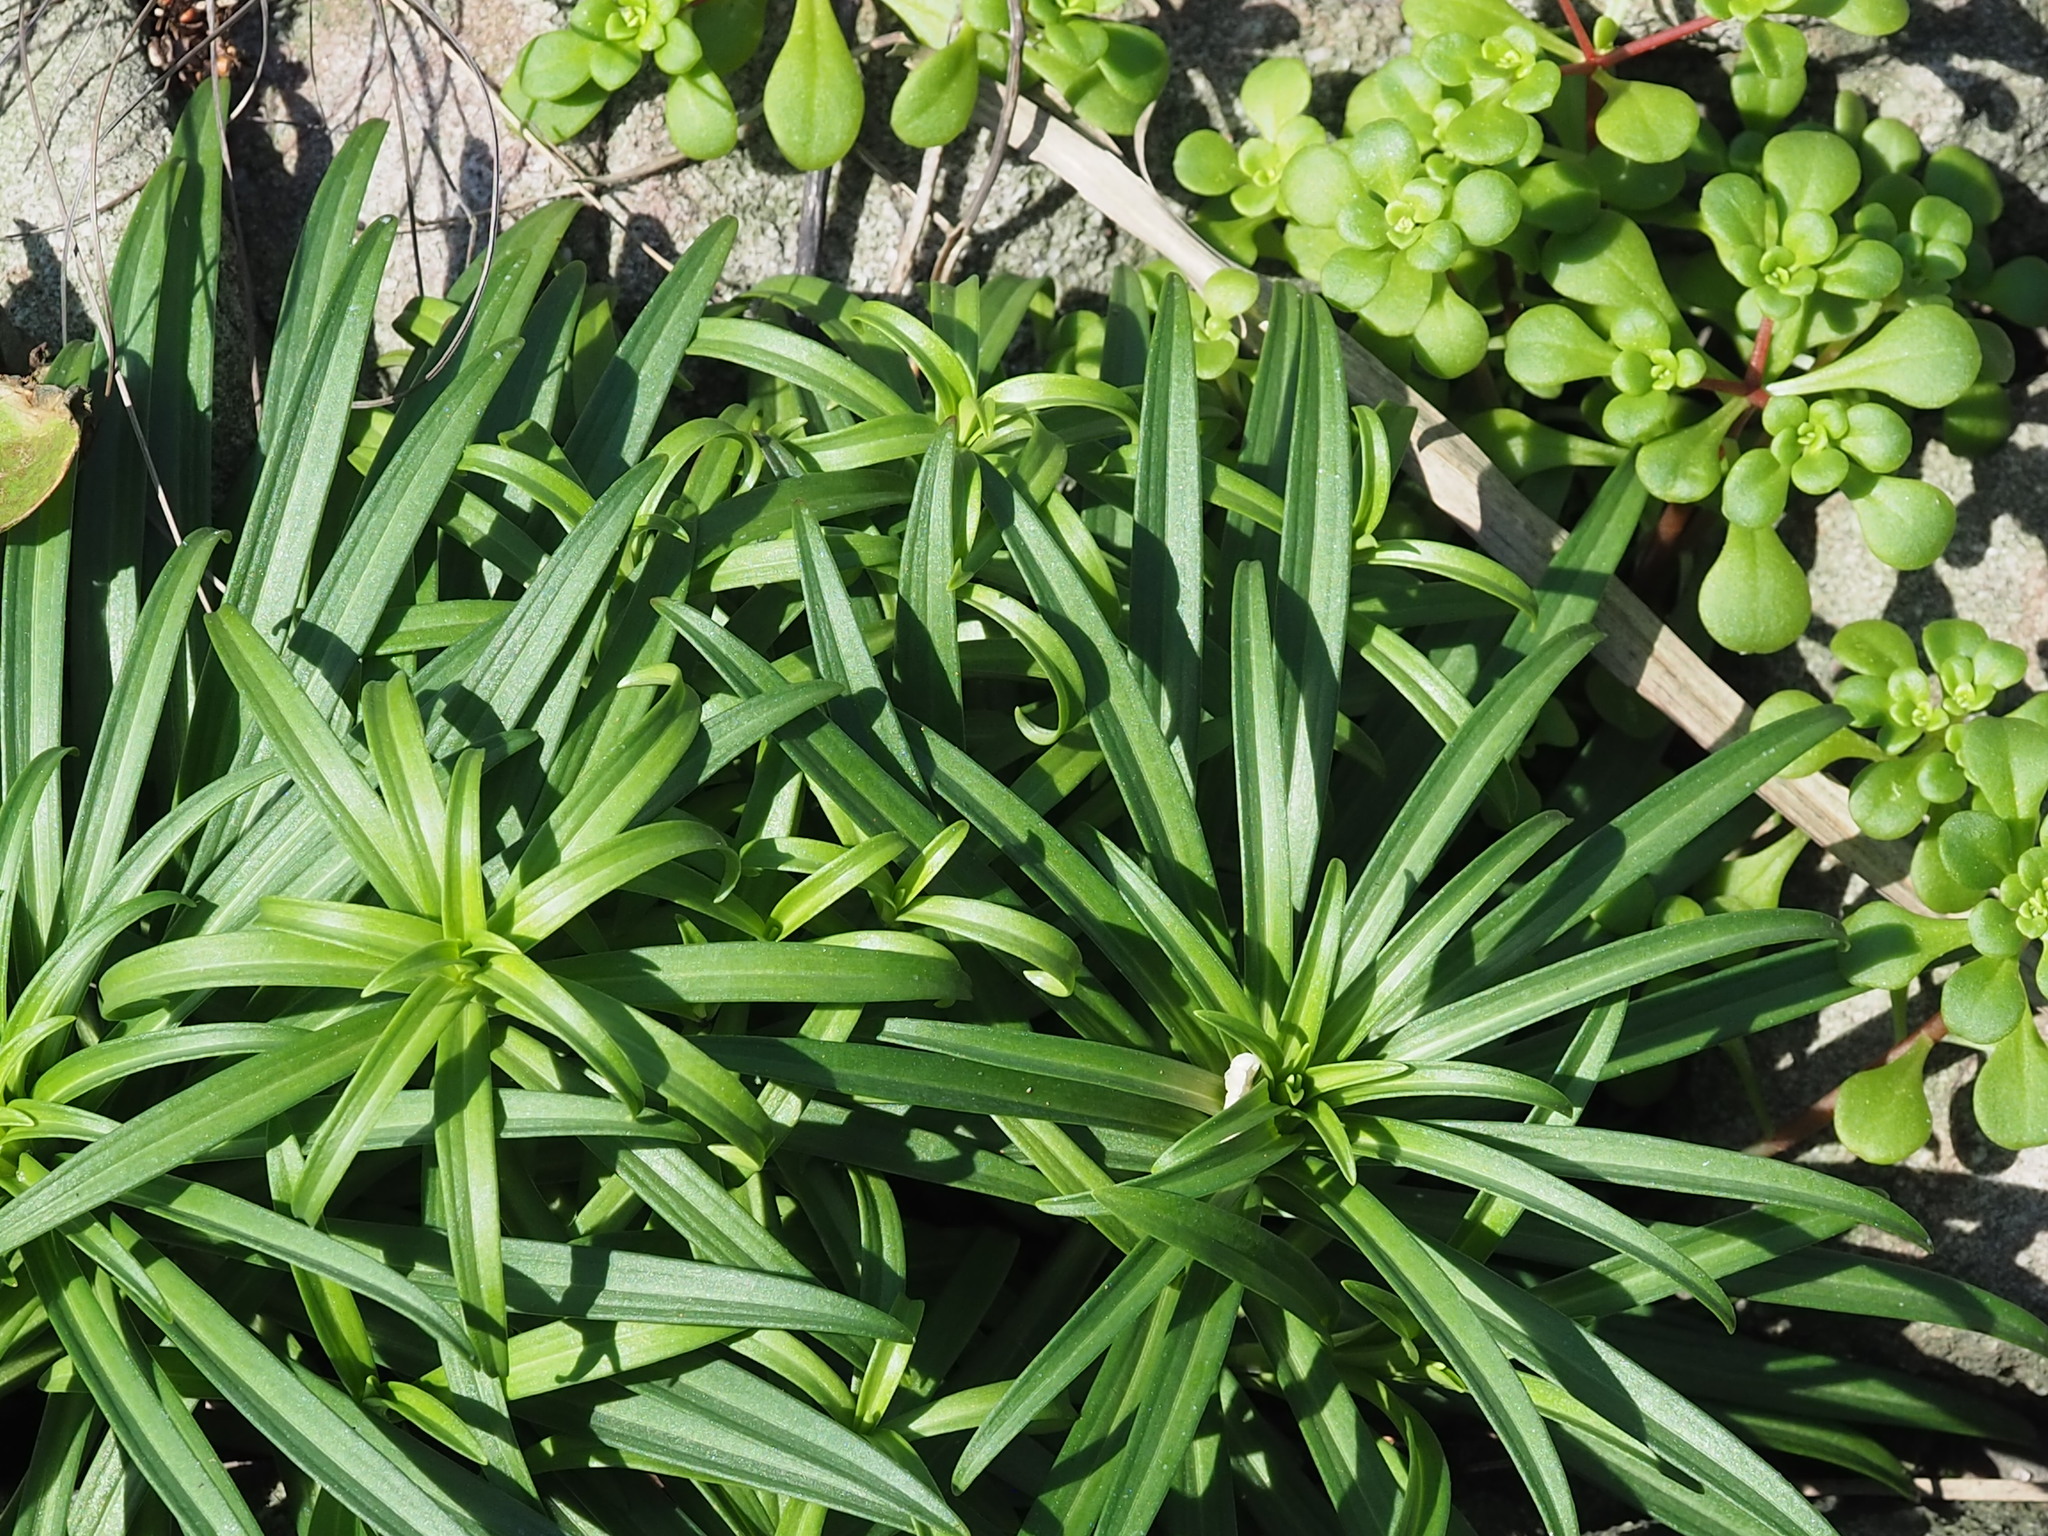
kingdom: Plantae
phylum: Tracheophyta
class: Liliopsida
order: Liliales
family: Liliaceae
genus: Lilium
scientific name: Lilium longiflorum
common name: Easter lily
